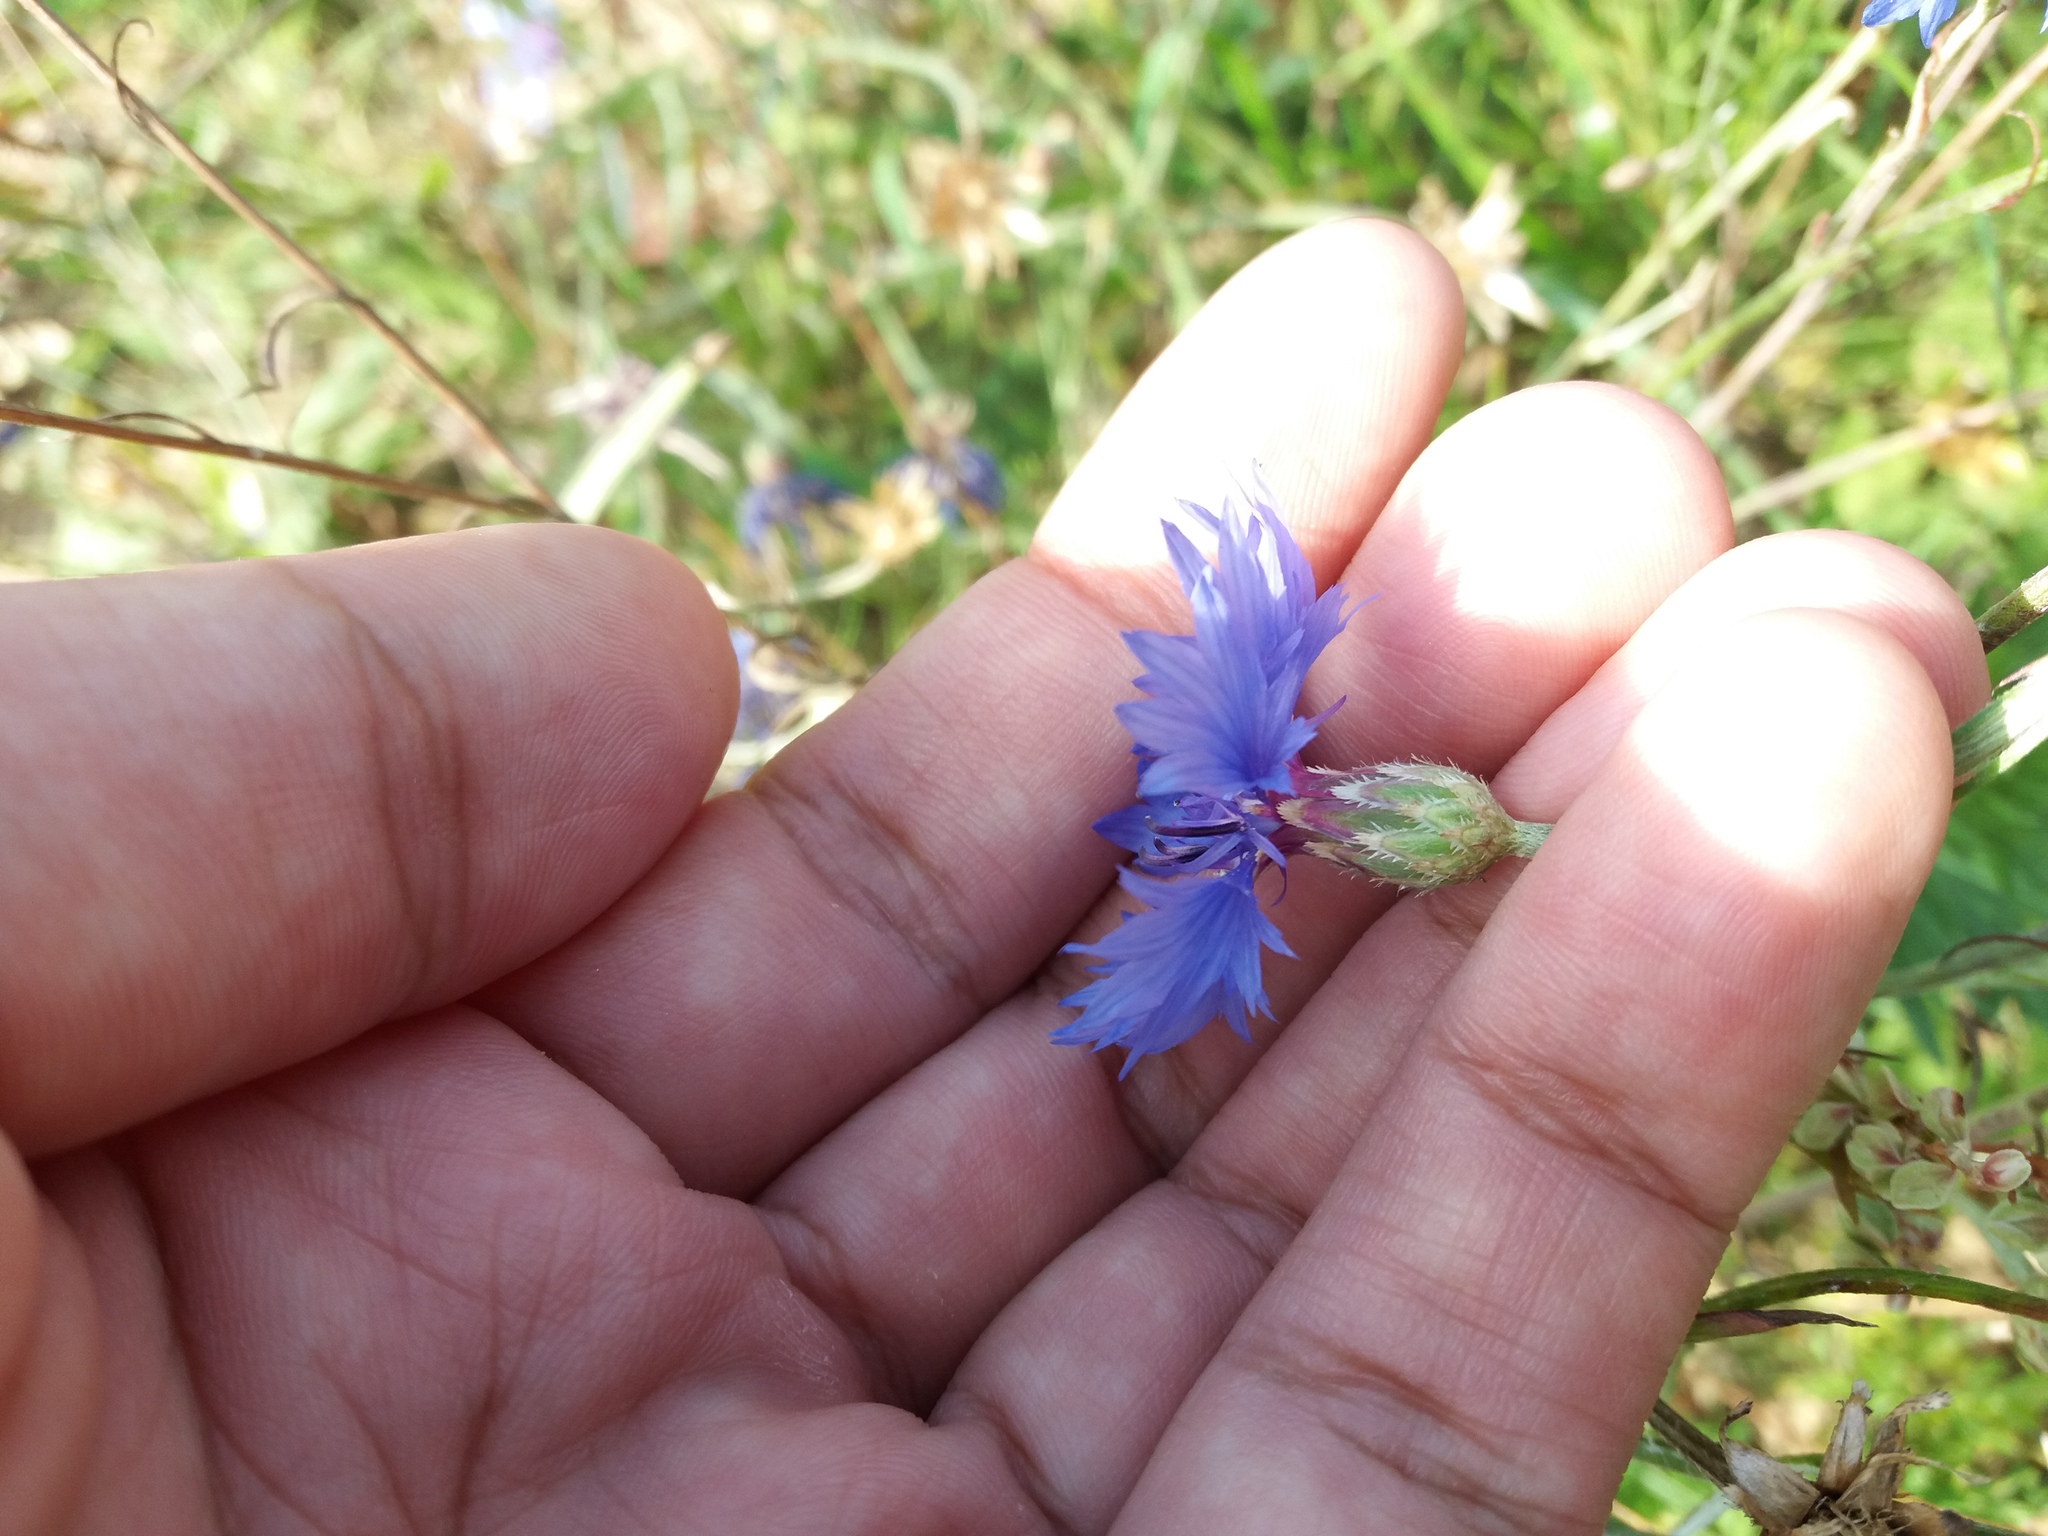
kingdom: Plantae
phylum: Tracheophyta
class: Magnoliopsida
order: Asterales
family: Asteraceae
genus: Centaurea
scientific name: Centaurea cyanus
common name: Cornflower
